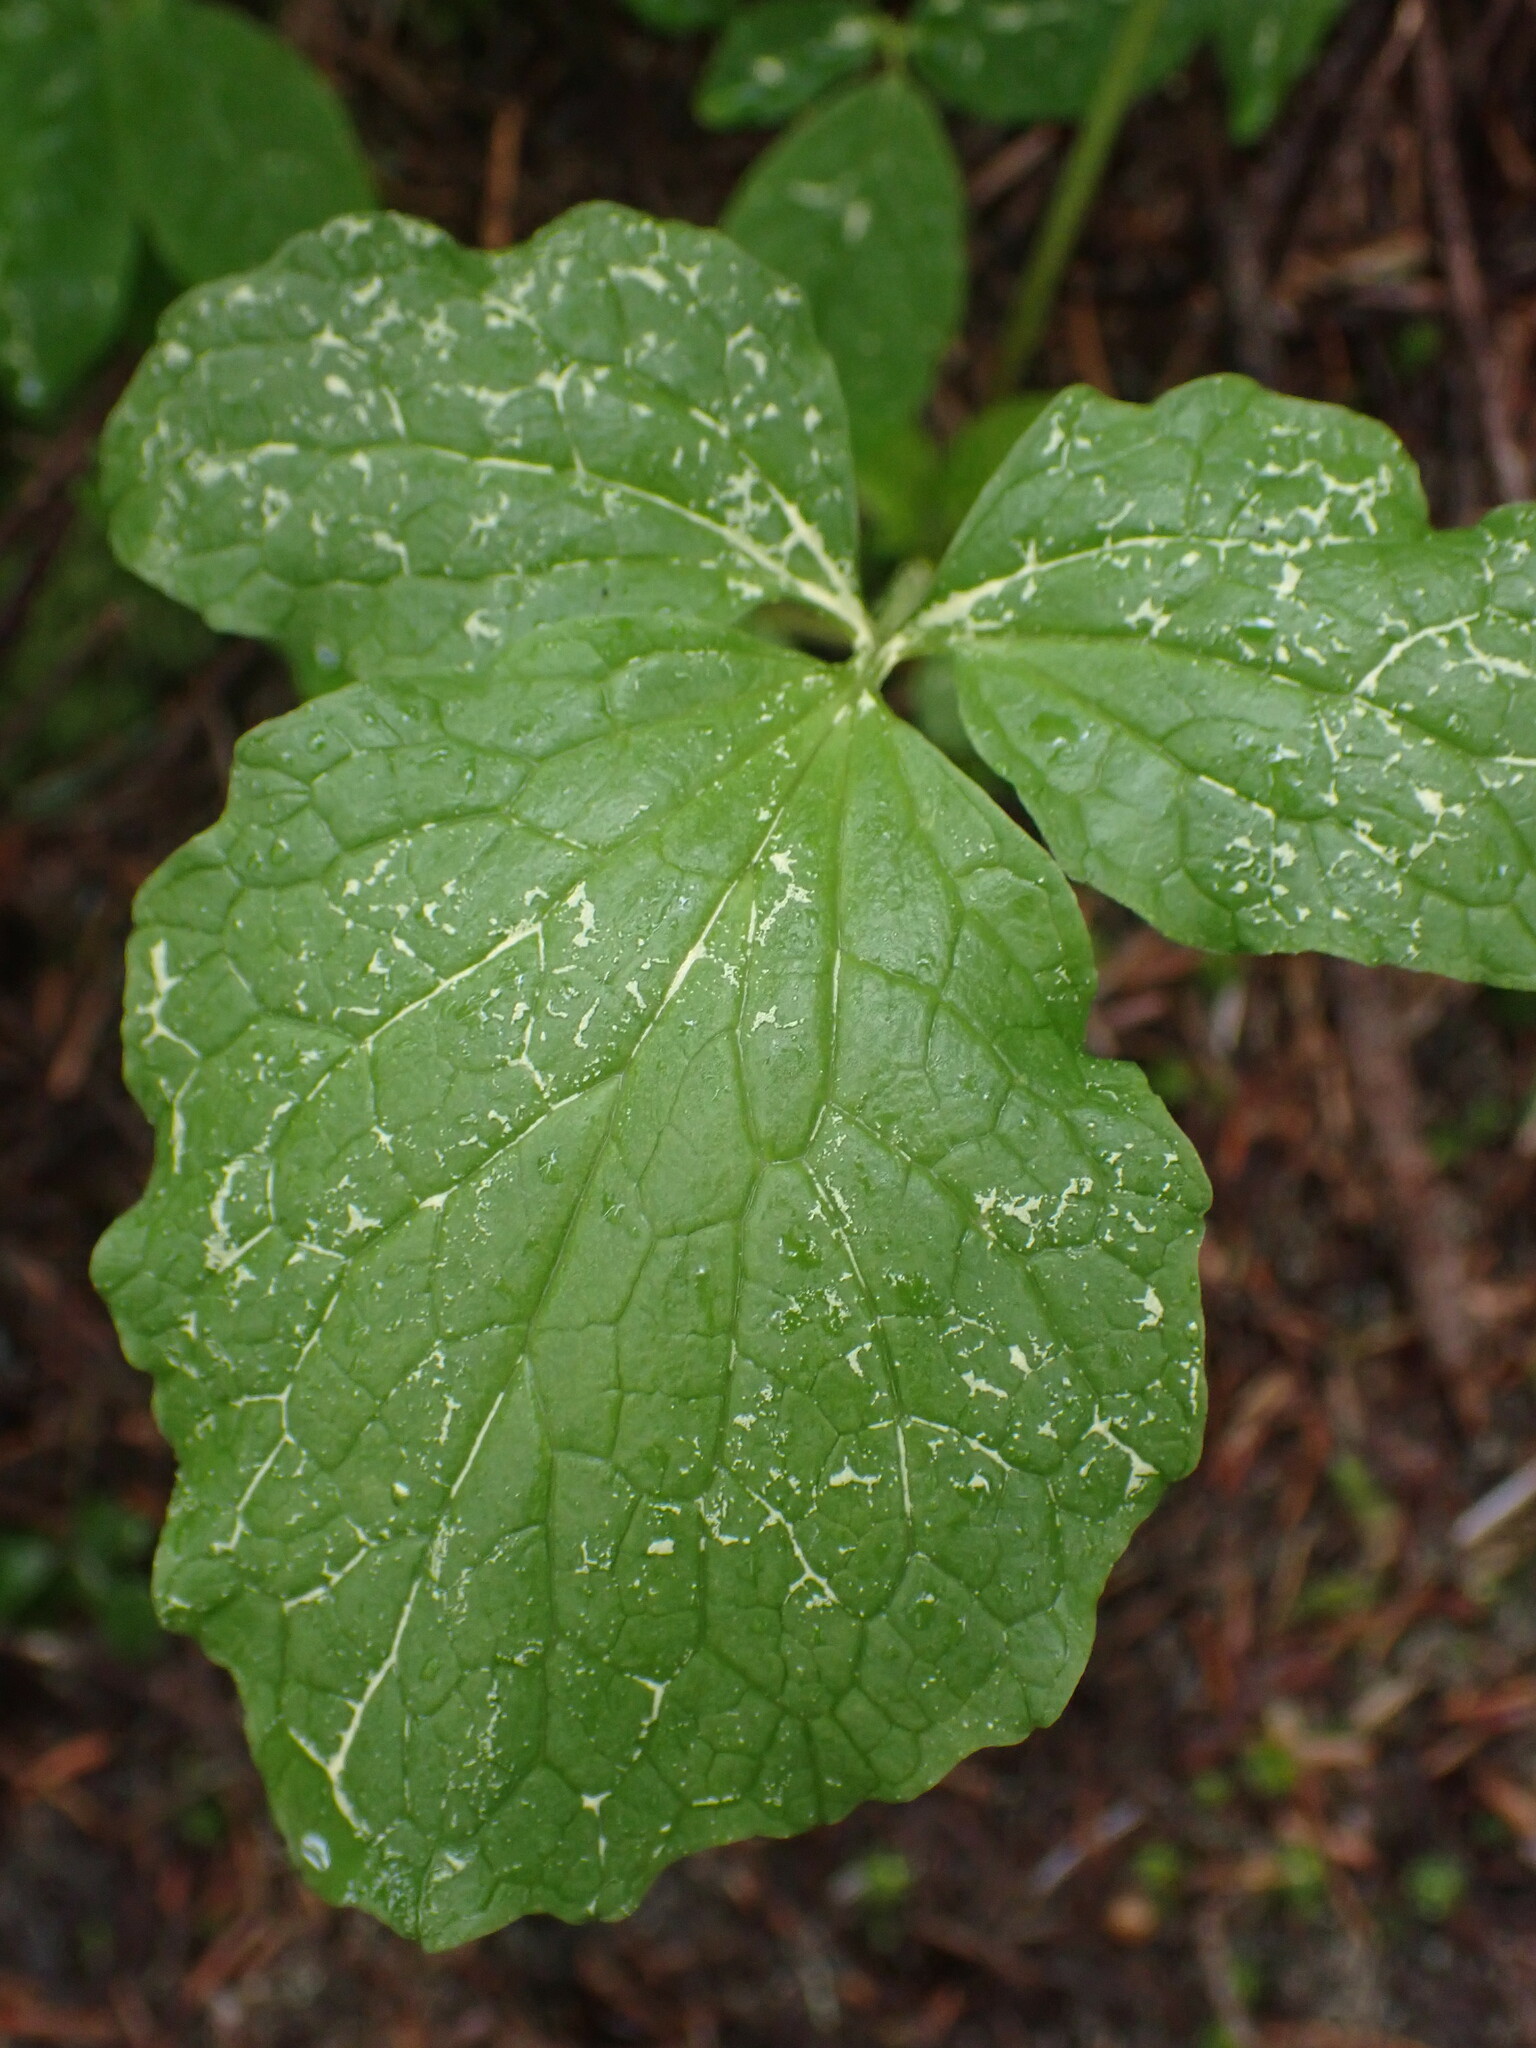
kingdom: Plantae
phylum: Tracheophyta
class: Magnoliopsida
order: Dipsacales
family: Caprifoliaceae
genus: Valeriana
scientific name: Valeriana sitchensis
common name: Pacific valerian
